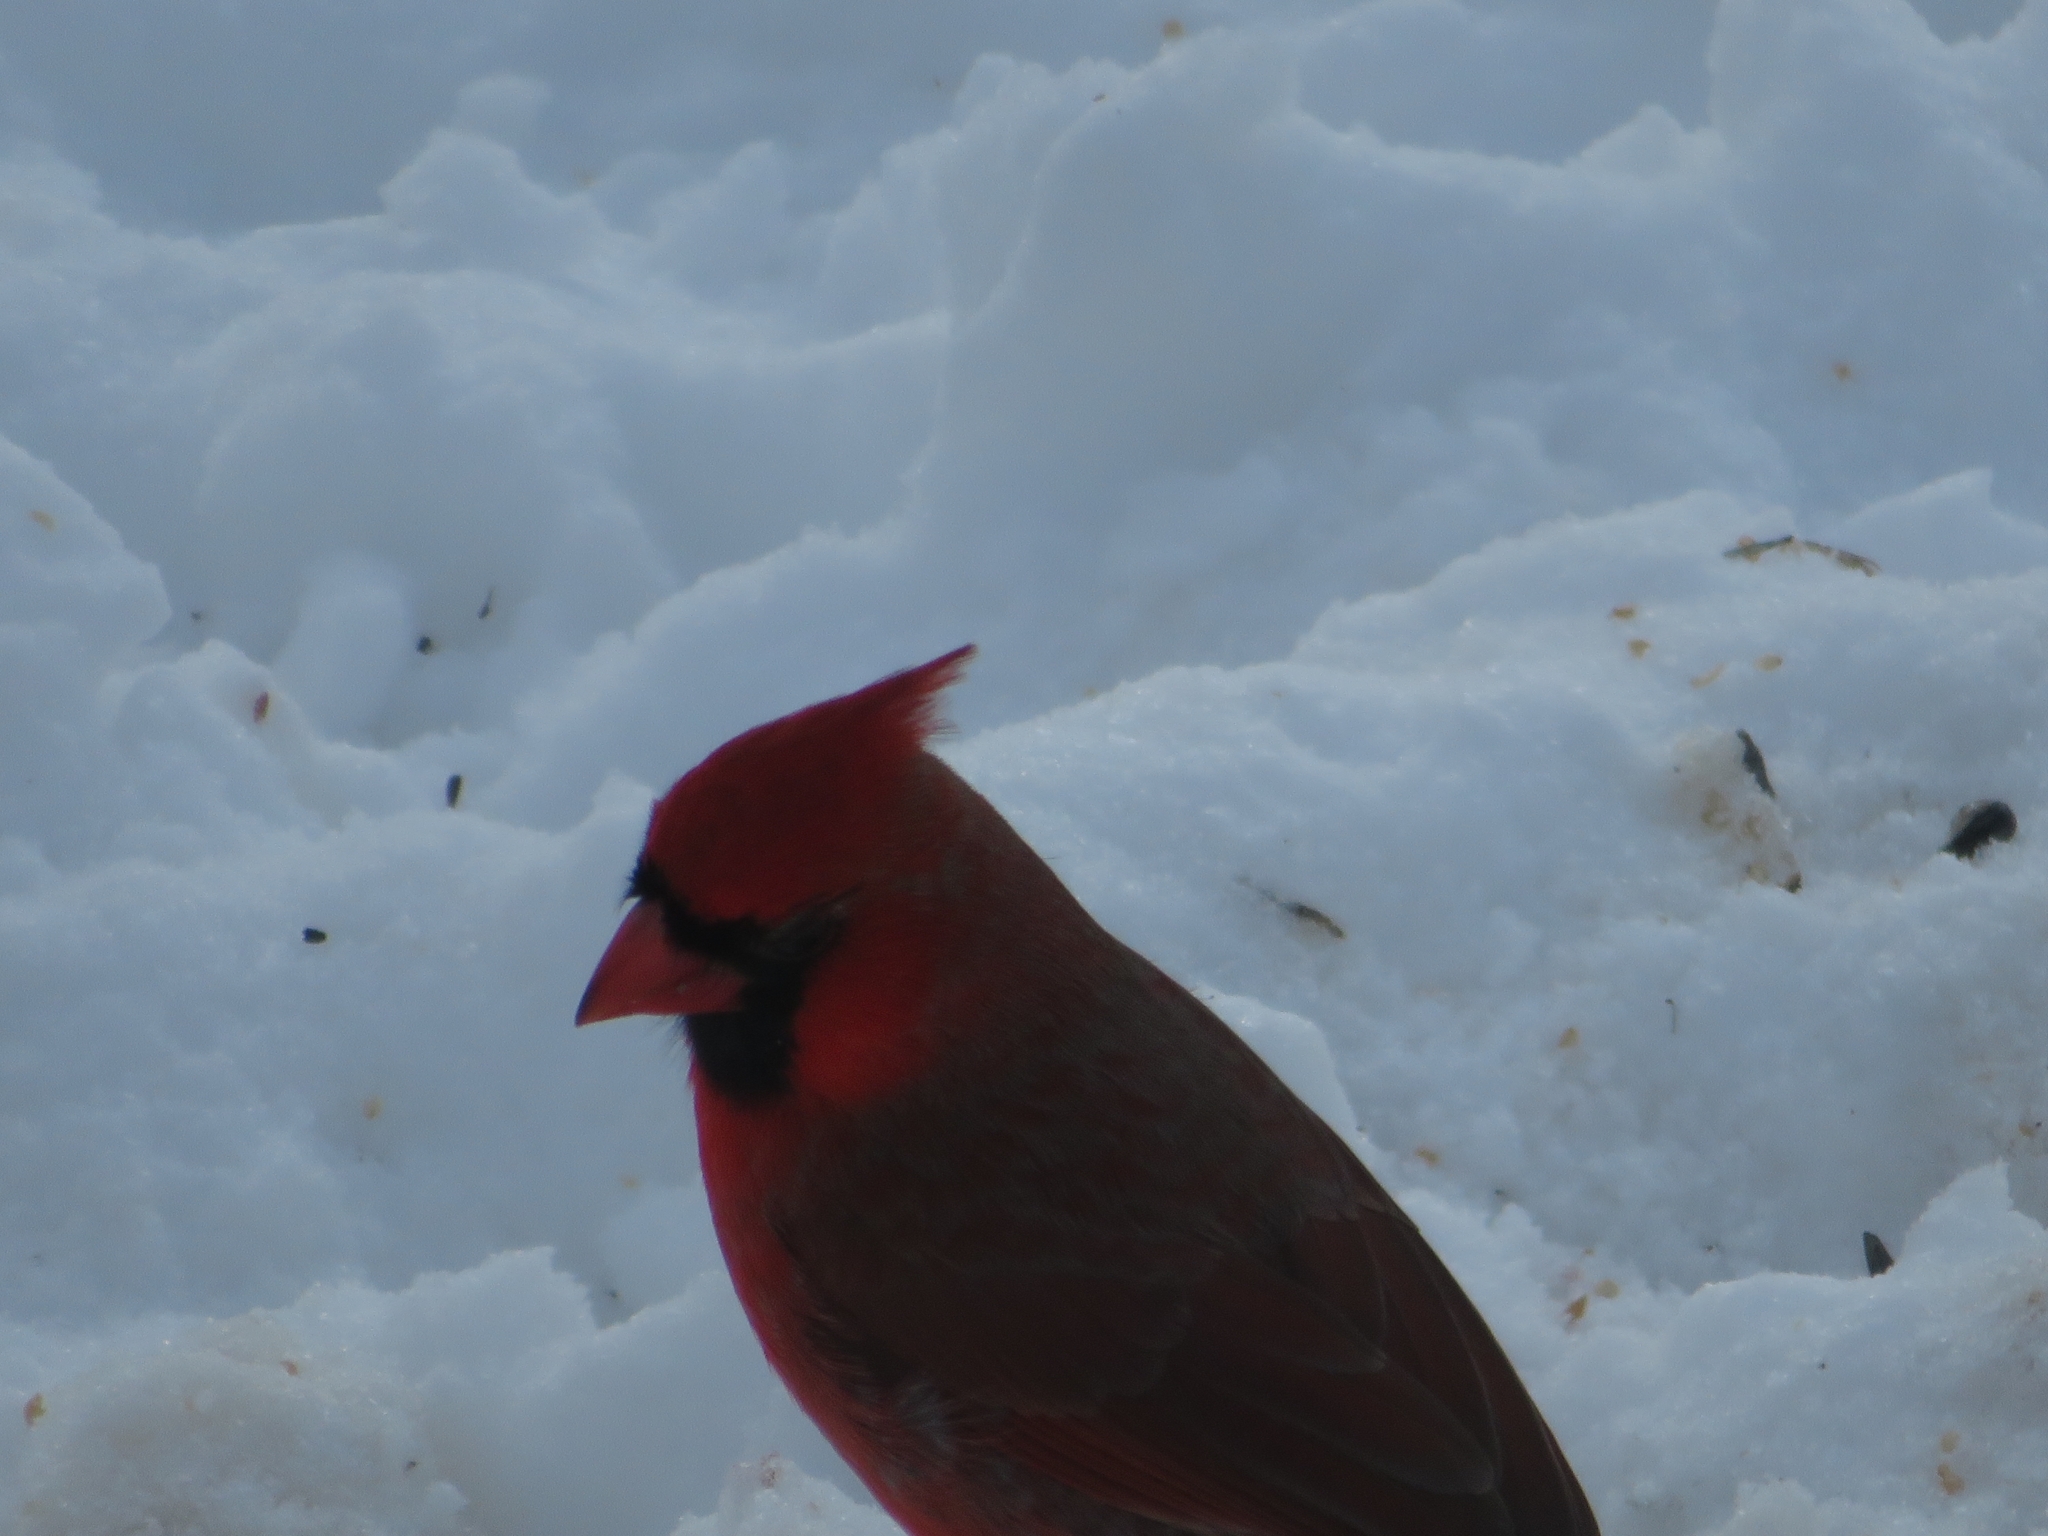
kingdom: Animalia
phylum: Chordata
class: Aves
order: Passeriformes
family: Cardinalidae
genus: Cardinalis
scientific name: Cardinalis cardinalis
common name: Northern cardinal
